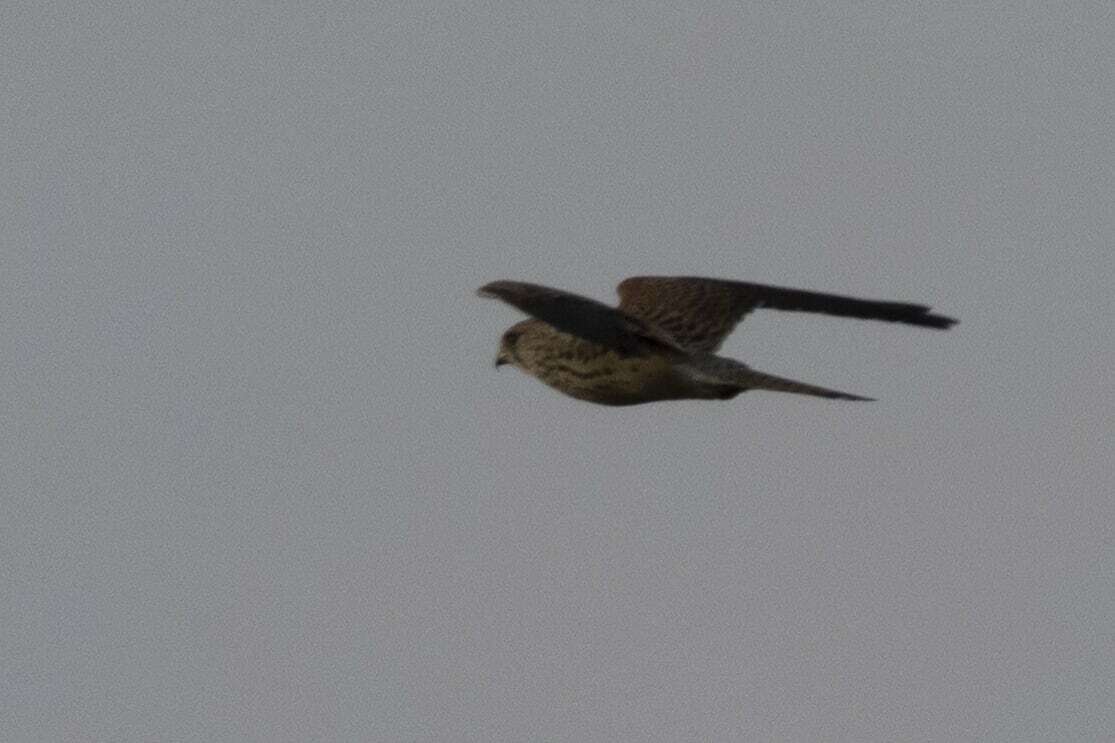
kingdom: Animalia
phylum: Chordata
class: Aves
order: Falconiformes
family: Falconidae
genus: Falco
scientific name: Falco tinnunculus
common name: Common kestrel
